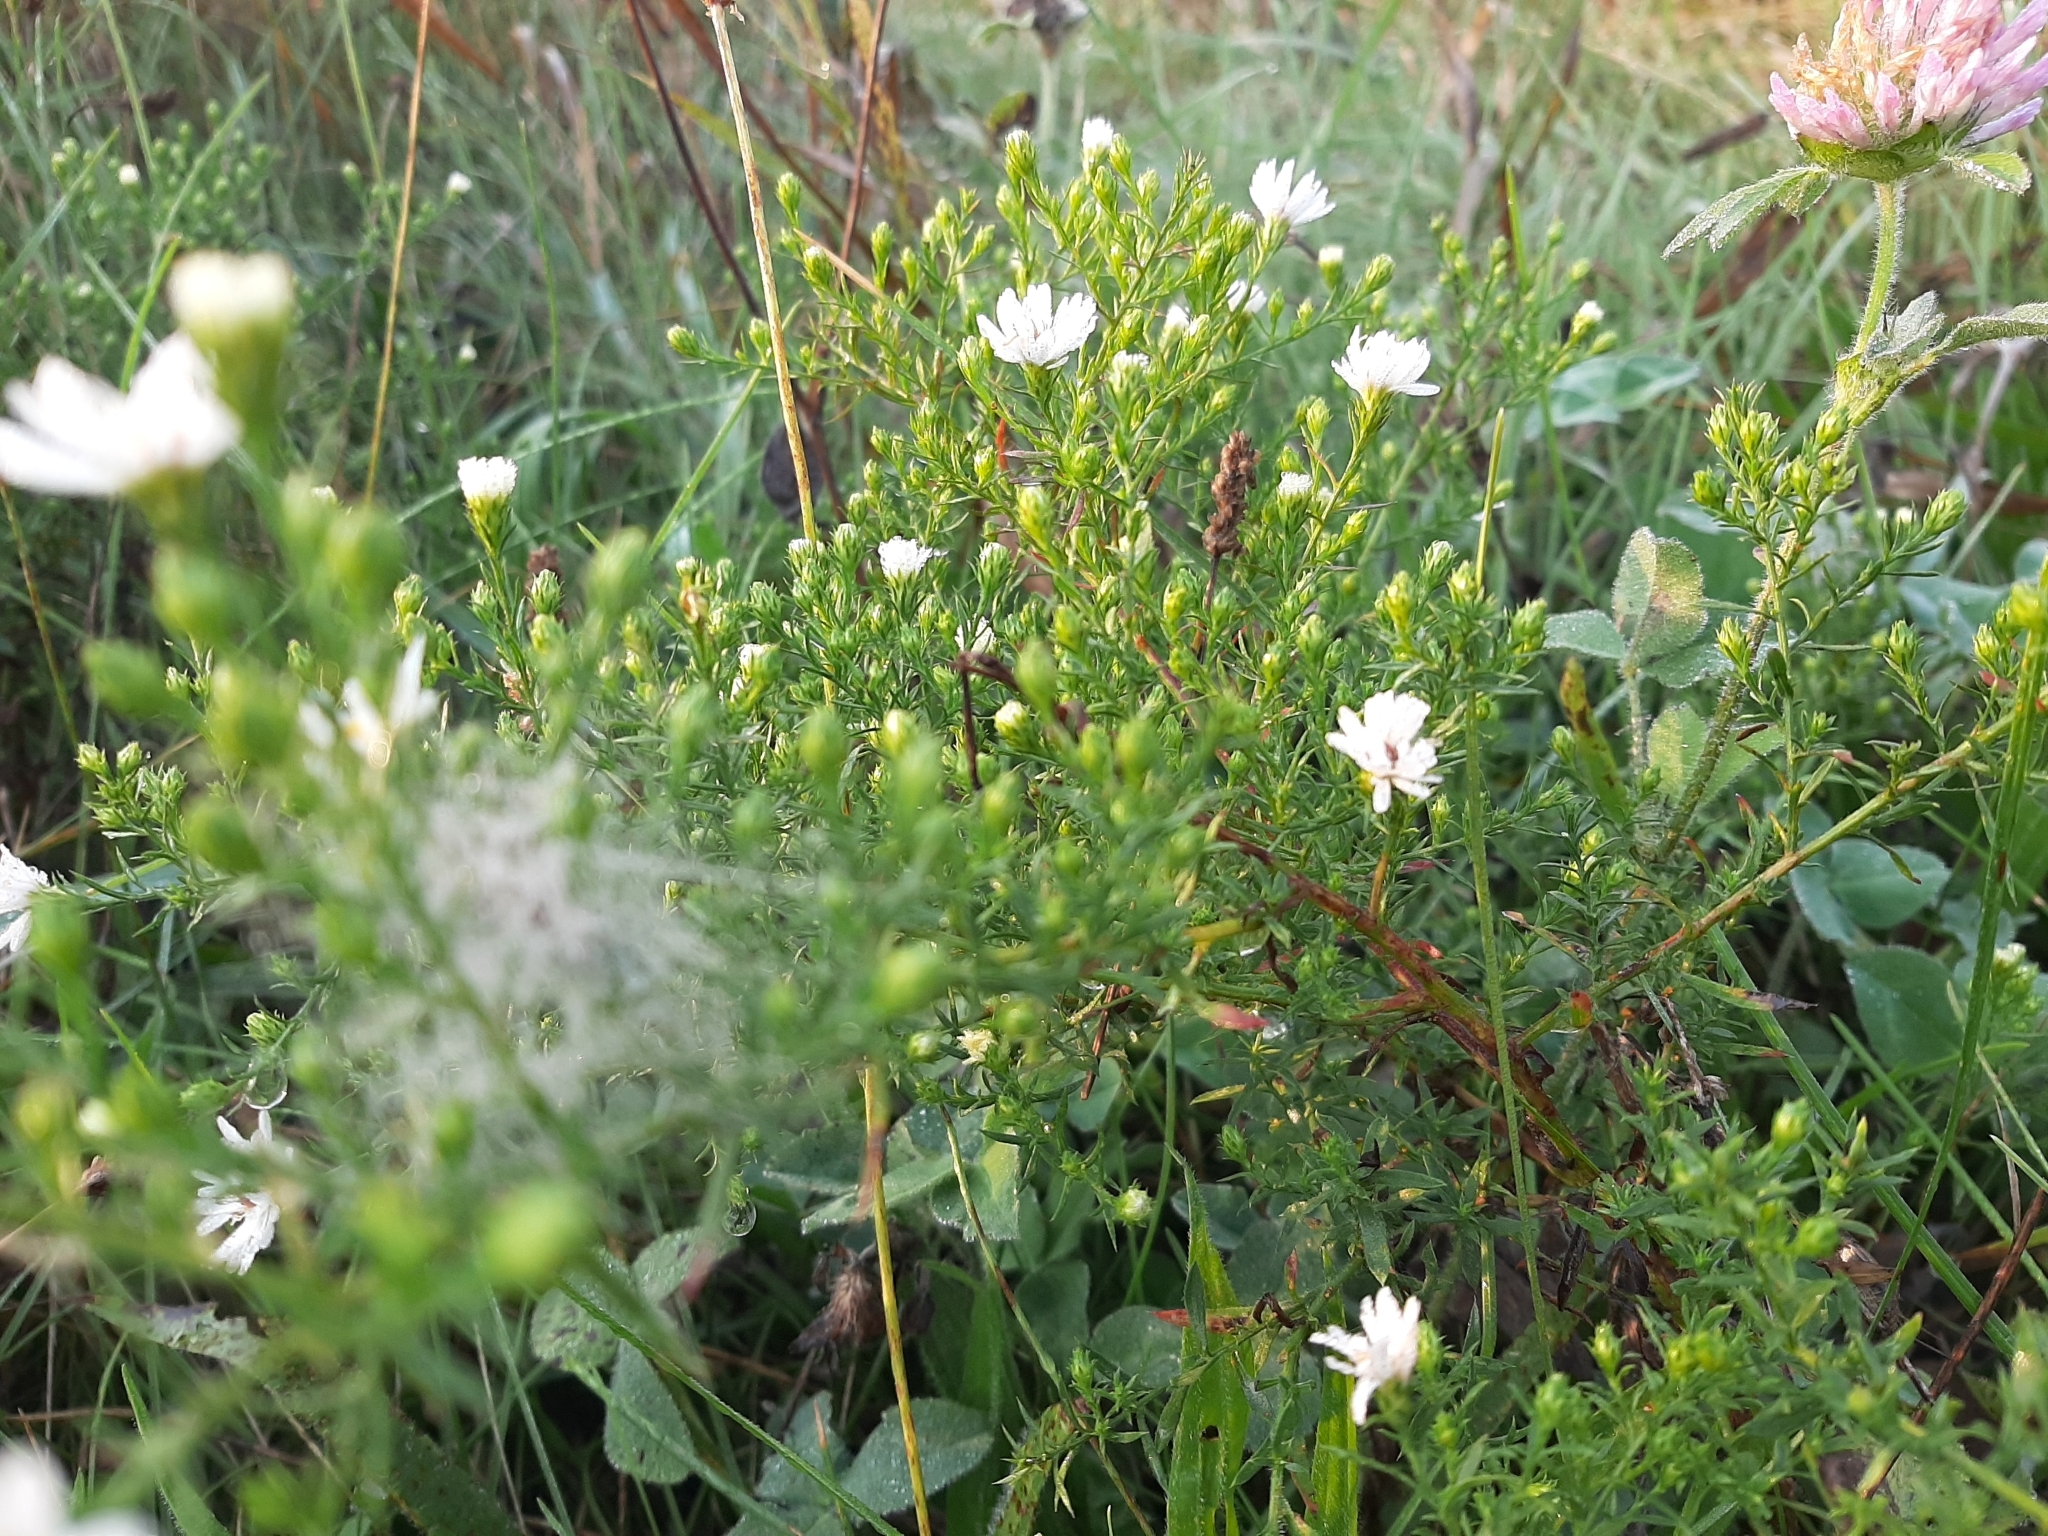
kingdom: Plantae
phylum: Tracheophyta
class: Magnoliopsida
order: Asterales
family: Asteraceae
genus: Symphyotrichum
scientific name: Symphyotrichum pilosum
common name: Awl aster
